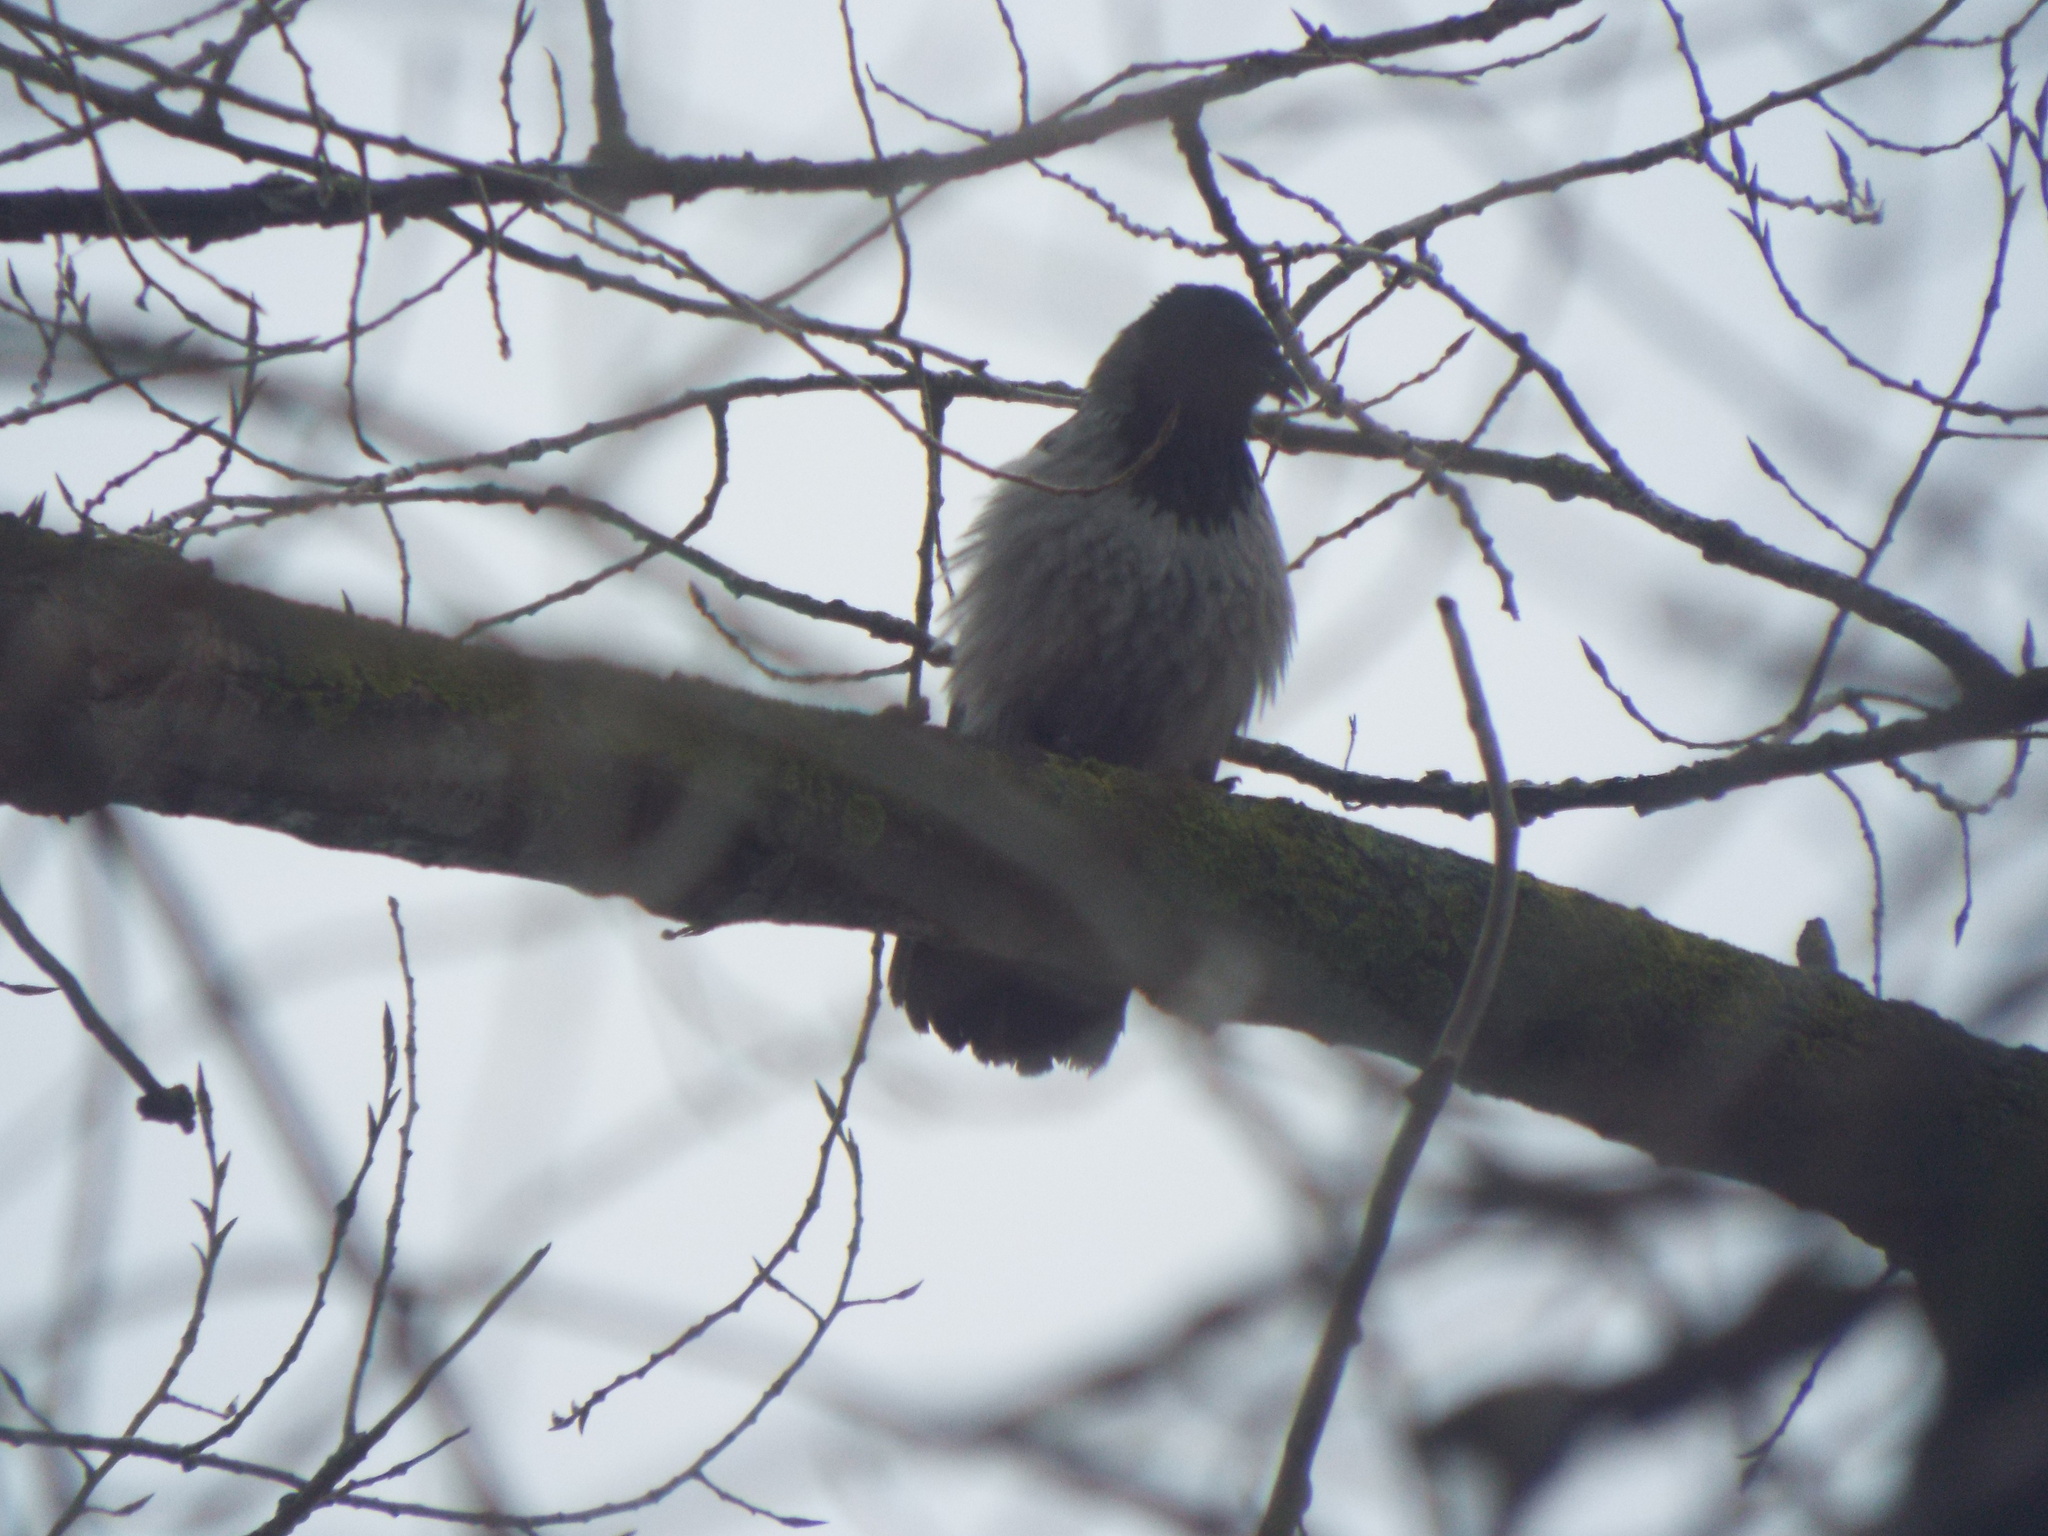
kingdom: Animalia
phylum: Chordata
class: Aves
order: Passeriformes
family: Corvidae
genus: Corvus
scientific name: Corvus cornix
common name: Hooded crow
